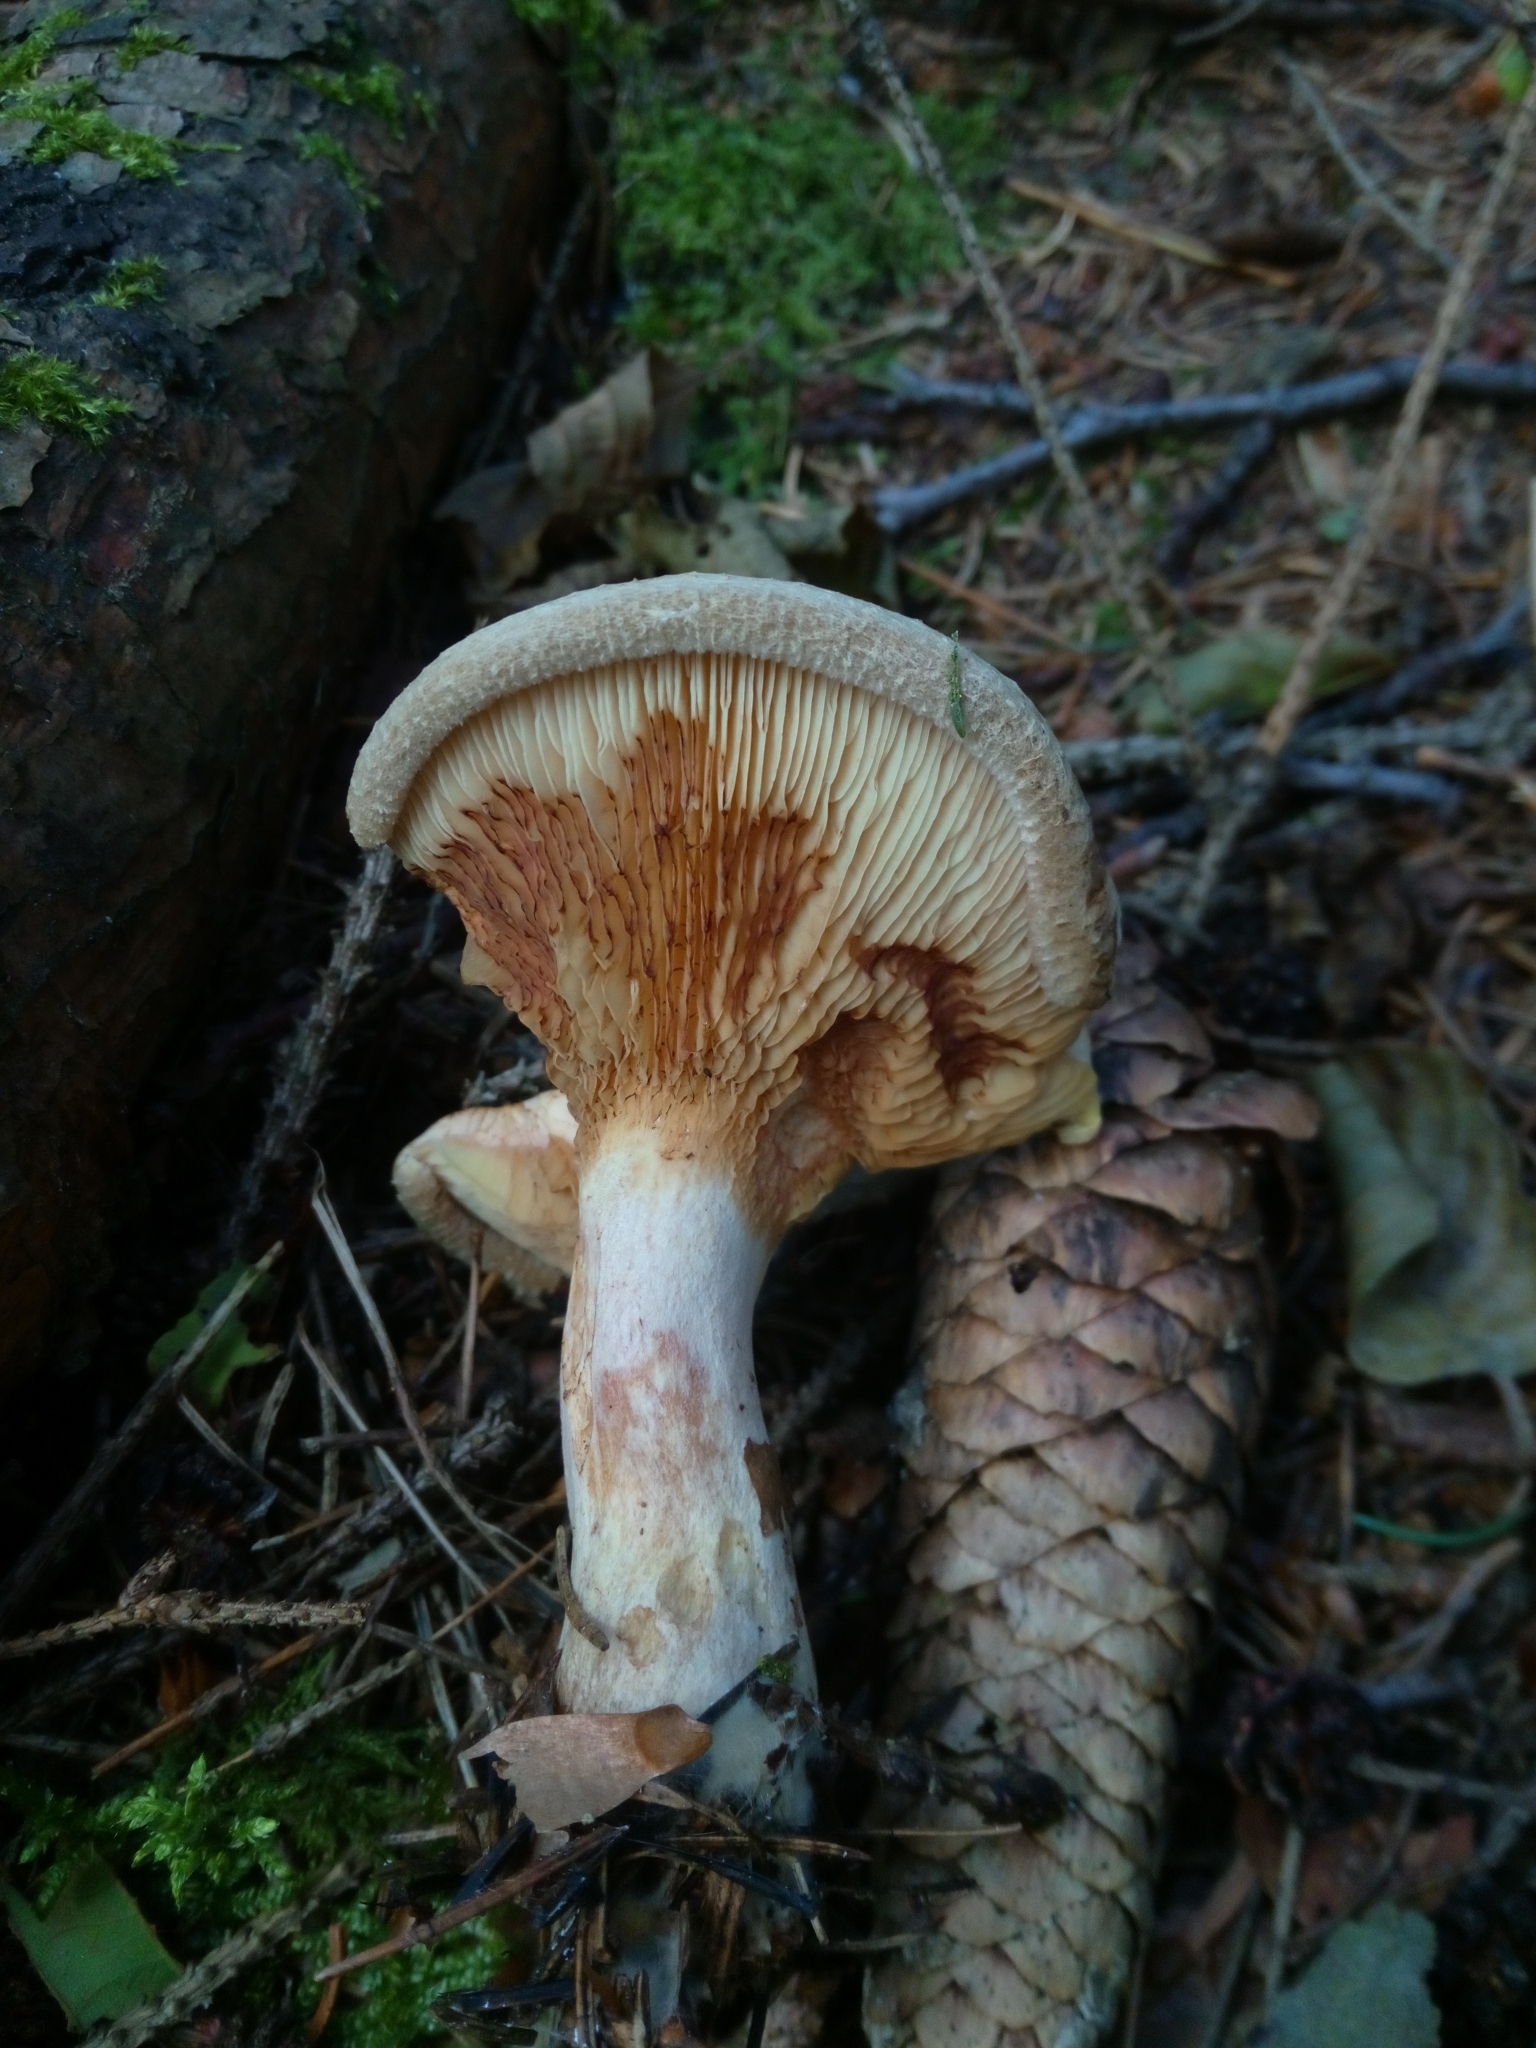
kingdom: Fungi
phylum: Basidiomycota
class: Agaricomycetes
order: Boletales
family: Paxillaceae
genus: Paxillus
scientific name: Paxillus involutus
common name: Brown roll rim
